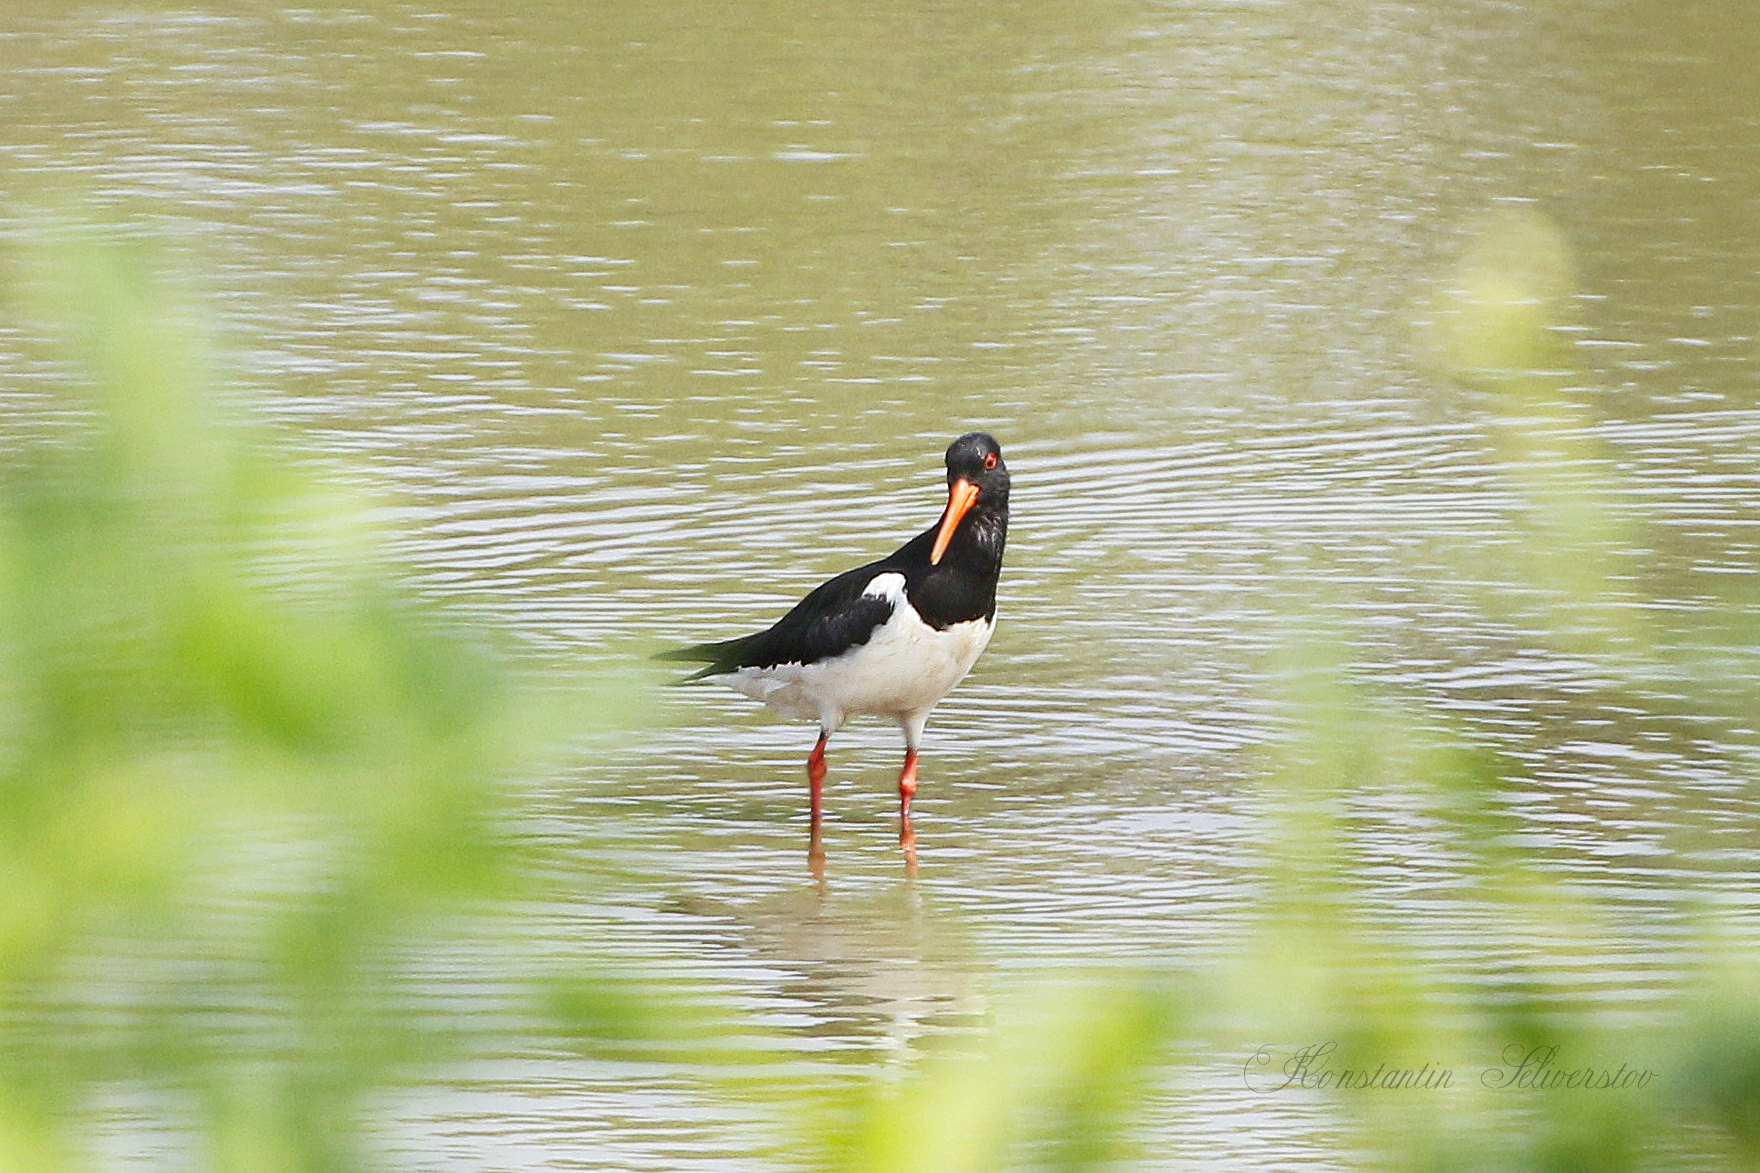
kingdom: Animalia
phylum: Chordata
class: Aves
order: Charadriiformes
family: Haematopodidae
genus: Haematopus
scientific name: Haematopus ostralegus
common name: Eurasian oystercatcher
